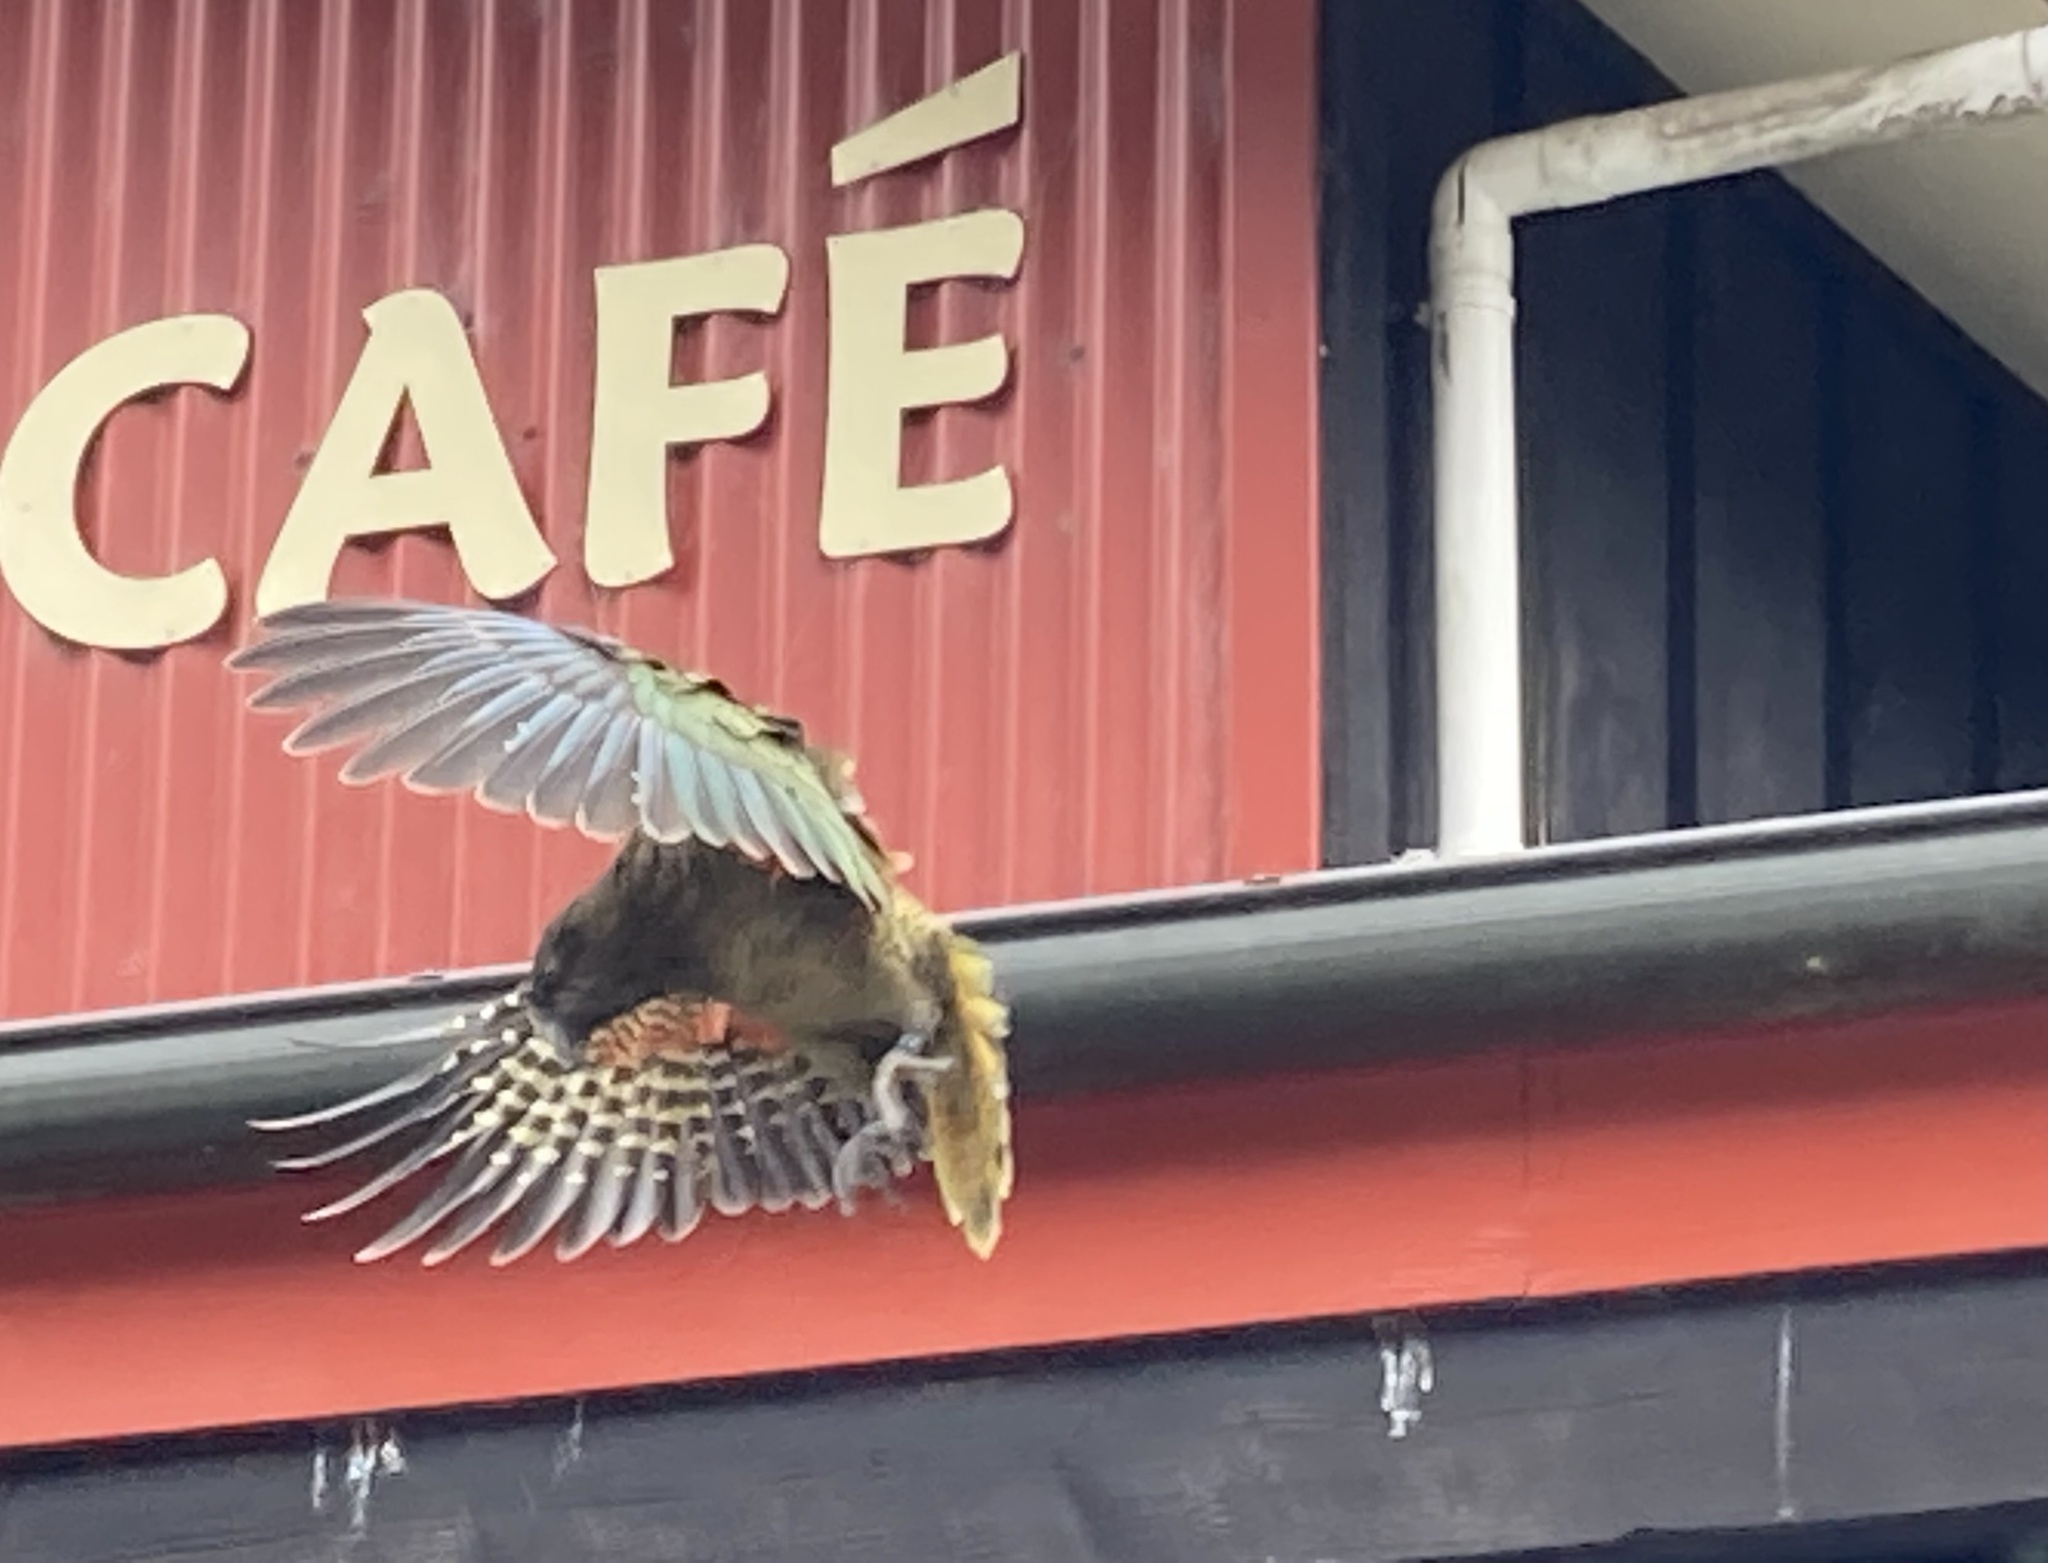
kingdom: Animalia
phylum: Chordata
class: Aves
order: Psittaciformes
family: Psittacidae
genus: Nestor
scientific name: Nestor notabilis
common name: Kea
